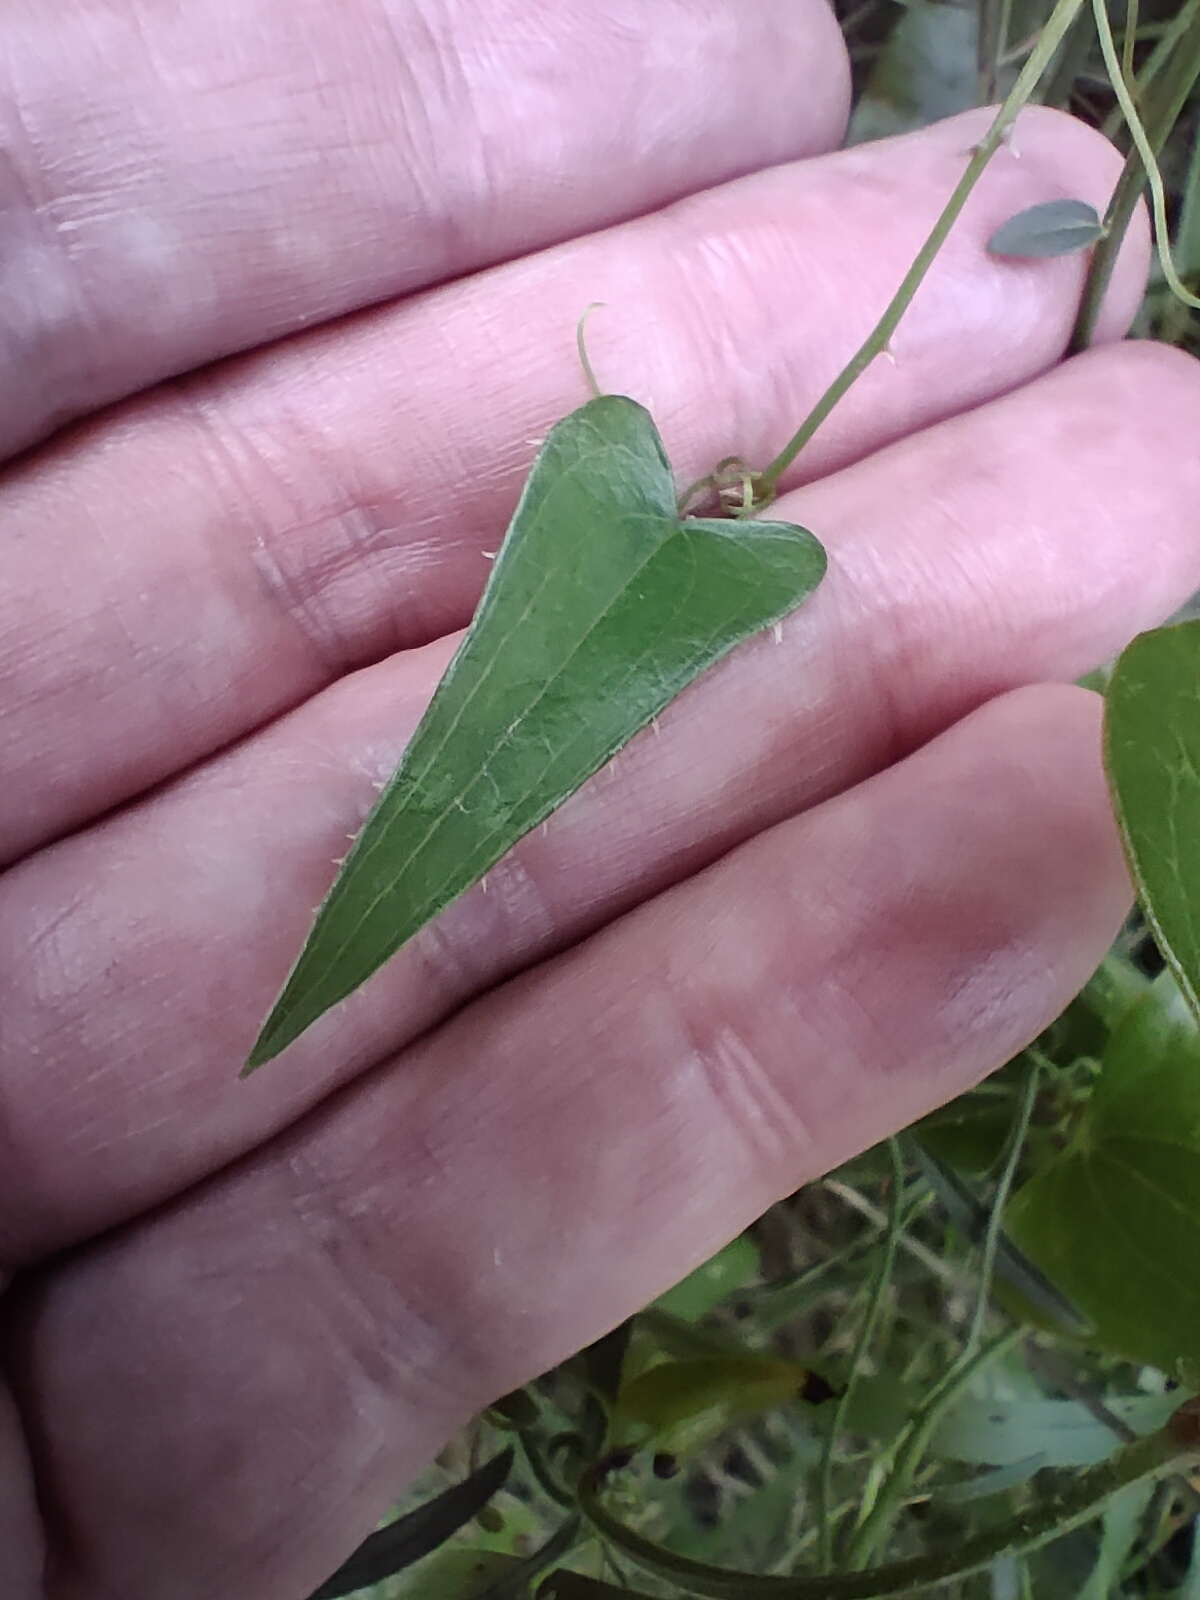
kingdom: Plantae
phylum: Tracheophyta
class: Liliopsida
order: Liliales
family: Smilacaceae
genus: Smilax
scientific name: Smilax aspera
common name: Common smilax
